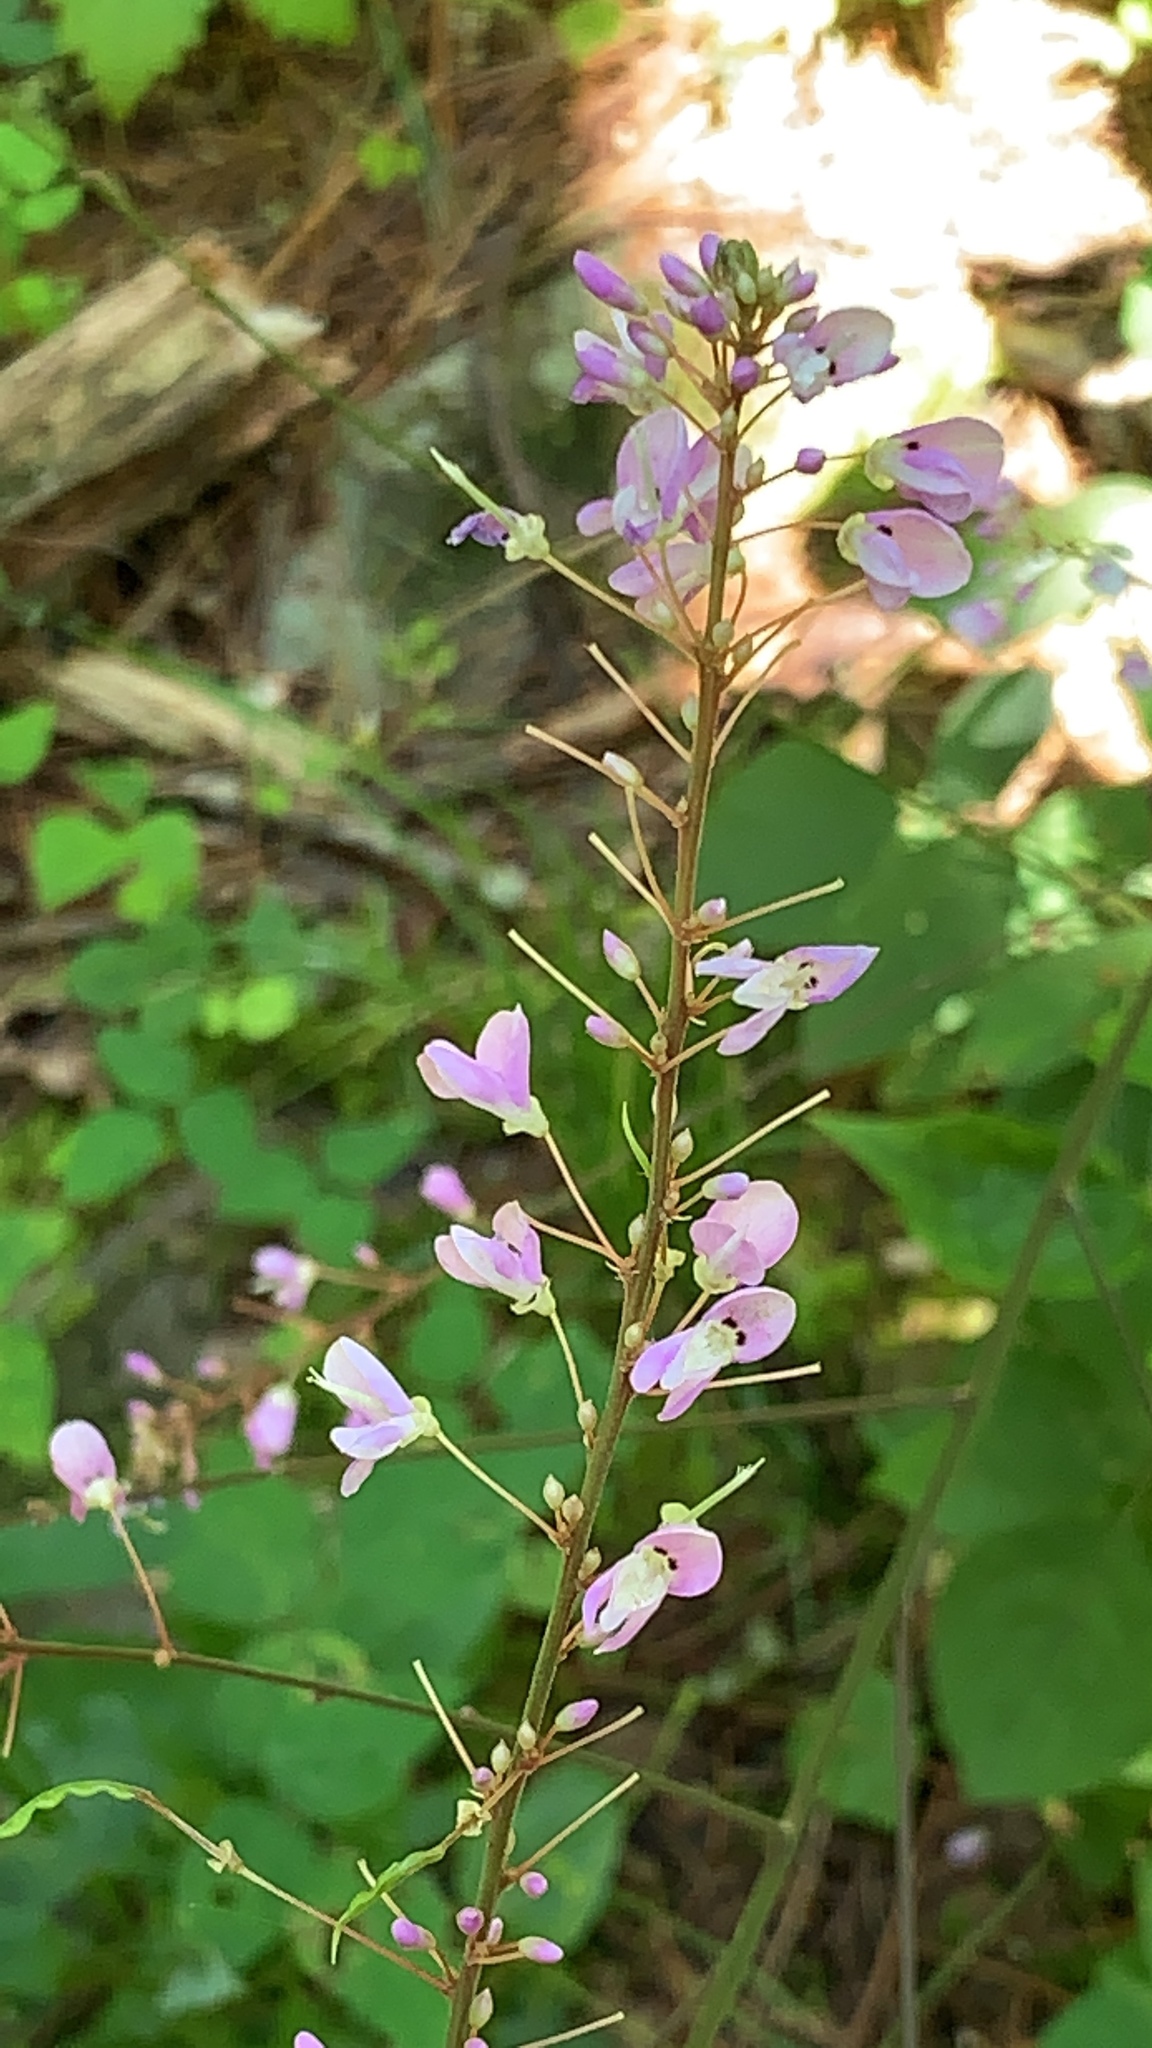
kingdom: Plantae
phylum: Tracheophyta
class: Magnoliopsida
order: Fabales
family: Fabaceae
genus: Hylodesmum
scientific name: Hylodesmum nudiflorum
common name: Bare-stemmed tick-trefoil
